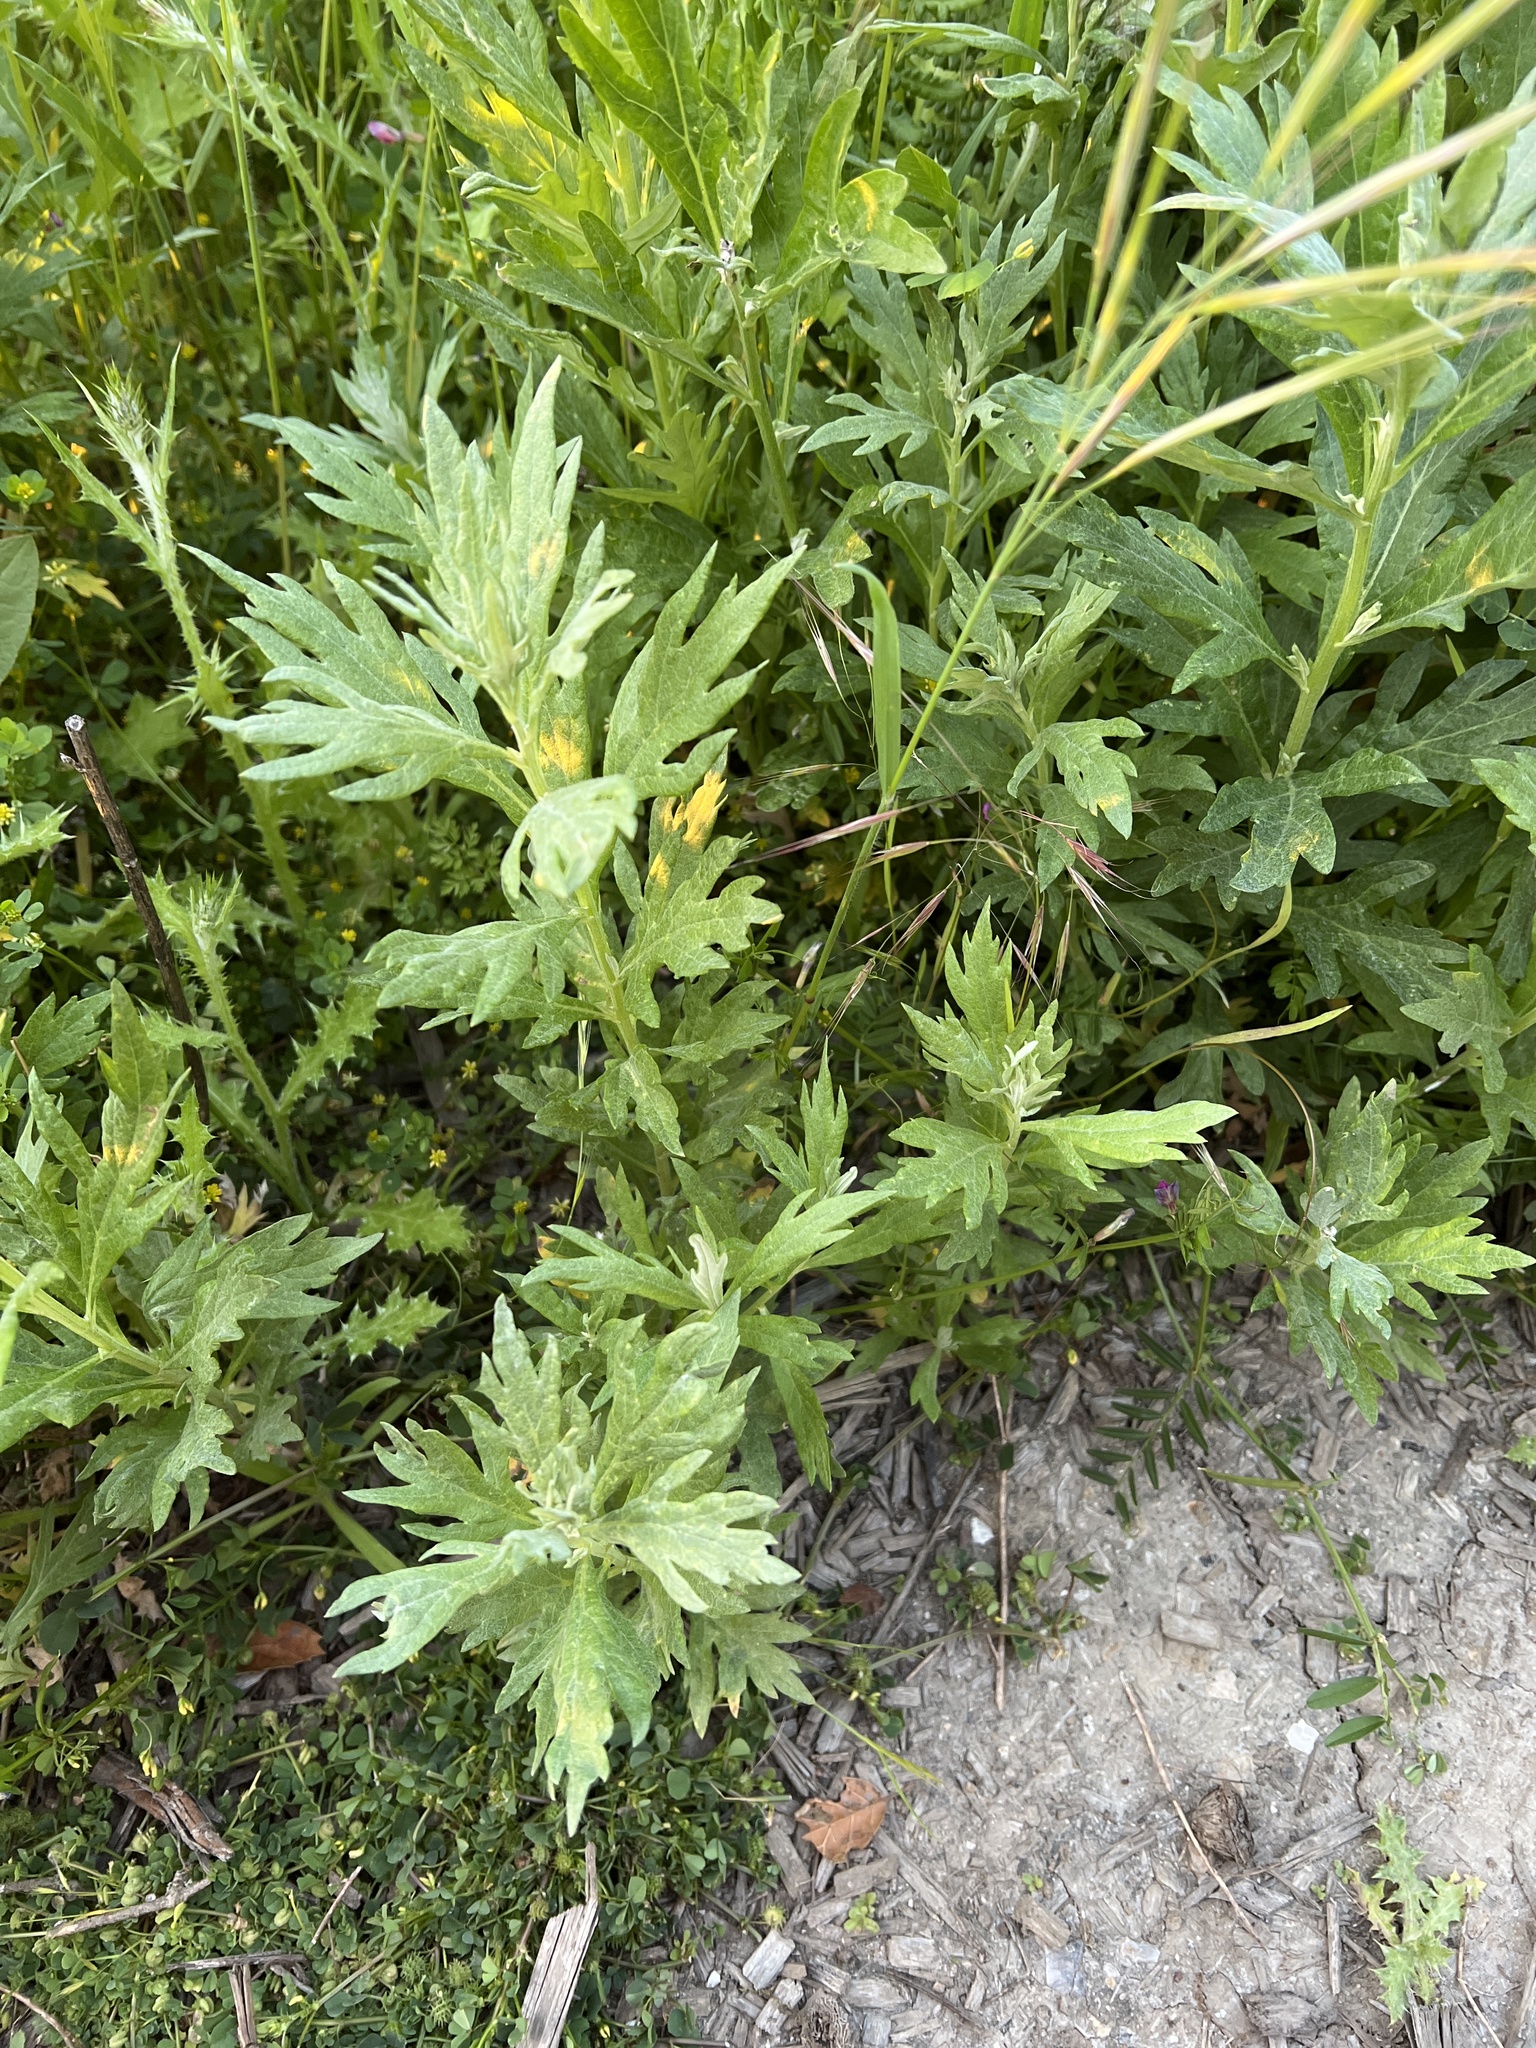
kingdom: Plantae
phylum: Tracheophyta
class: Magnoliopsida
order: Asterales
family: Asteraceae
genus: Artemisia
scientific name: Artemisia douglasiana
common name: Northwest mugwort
